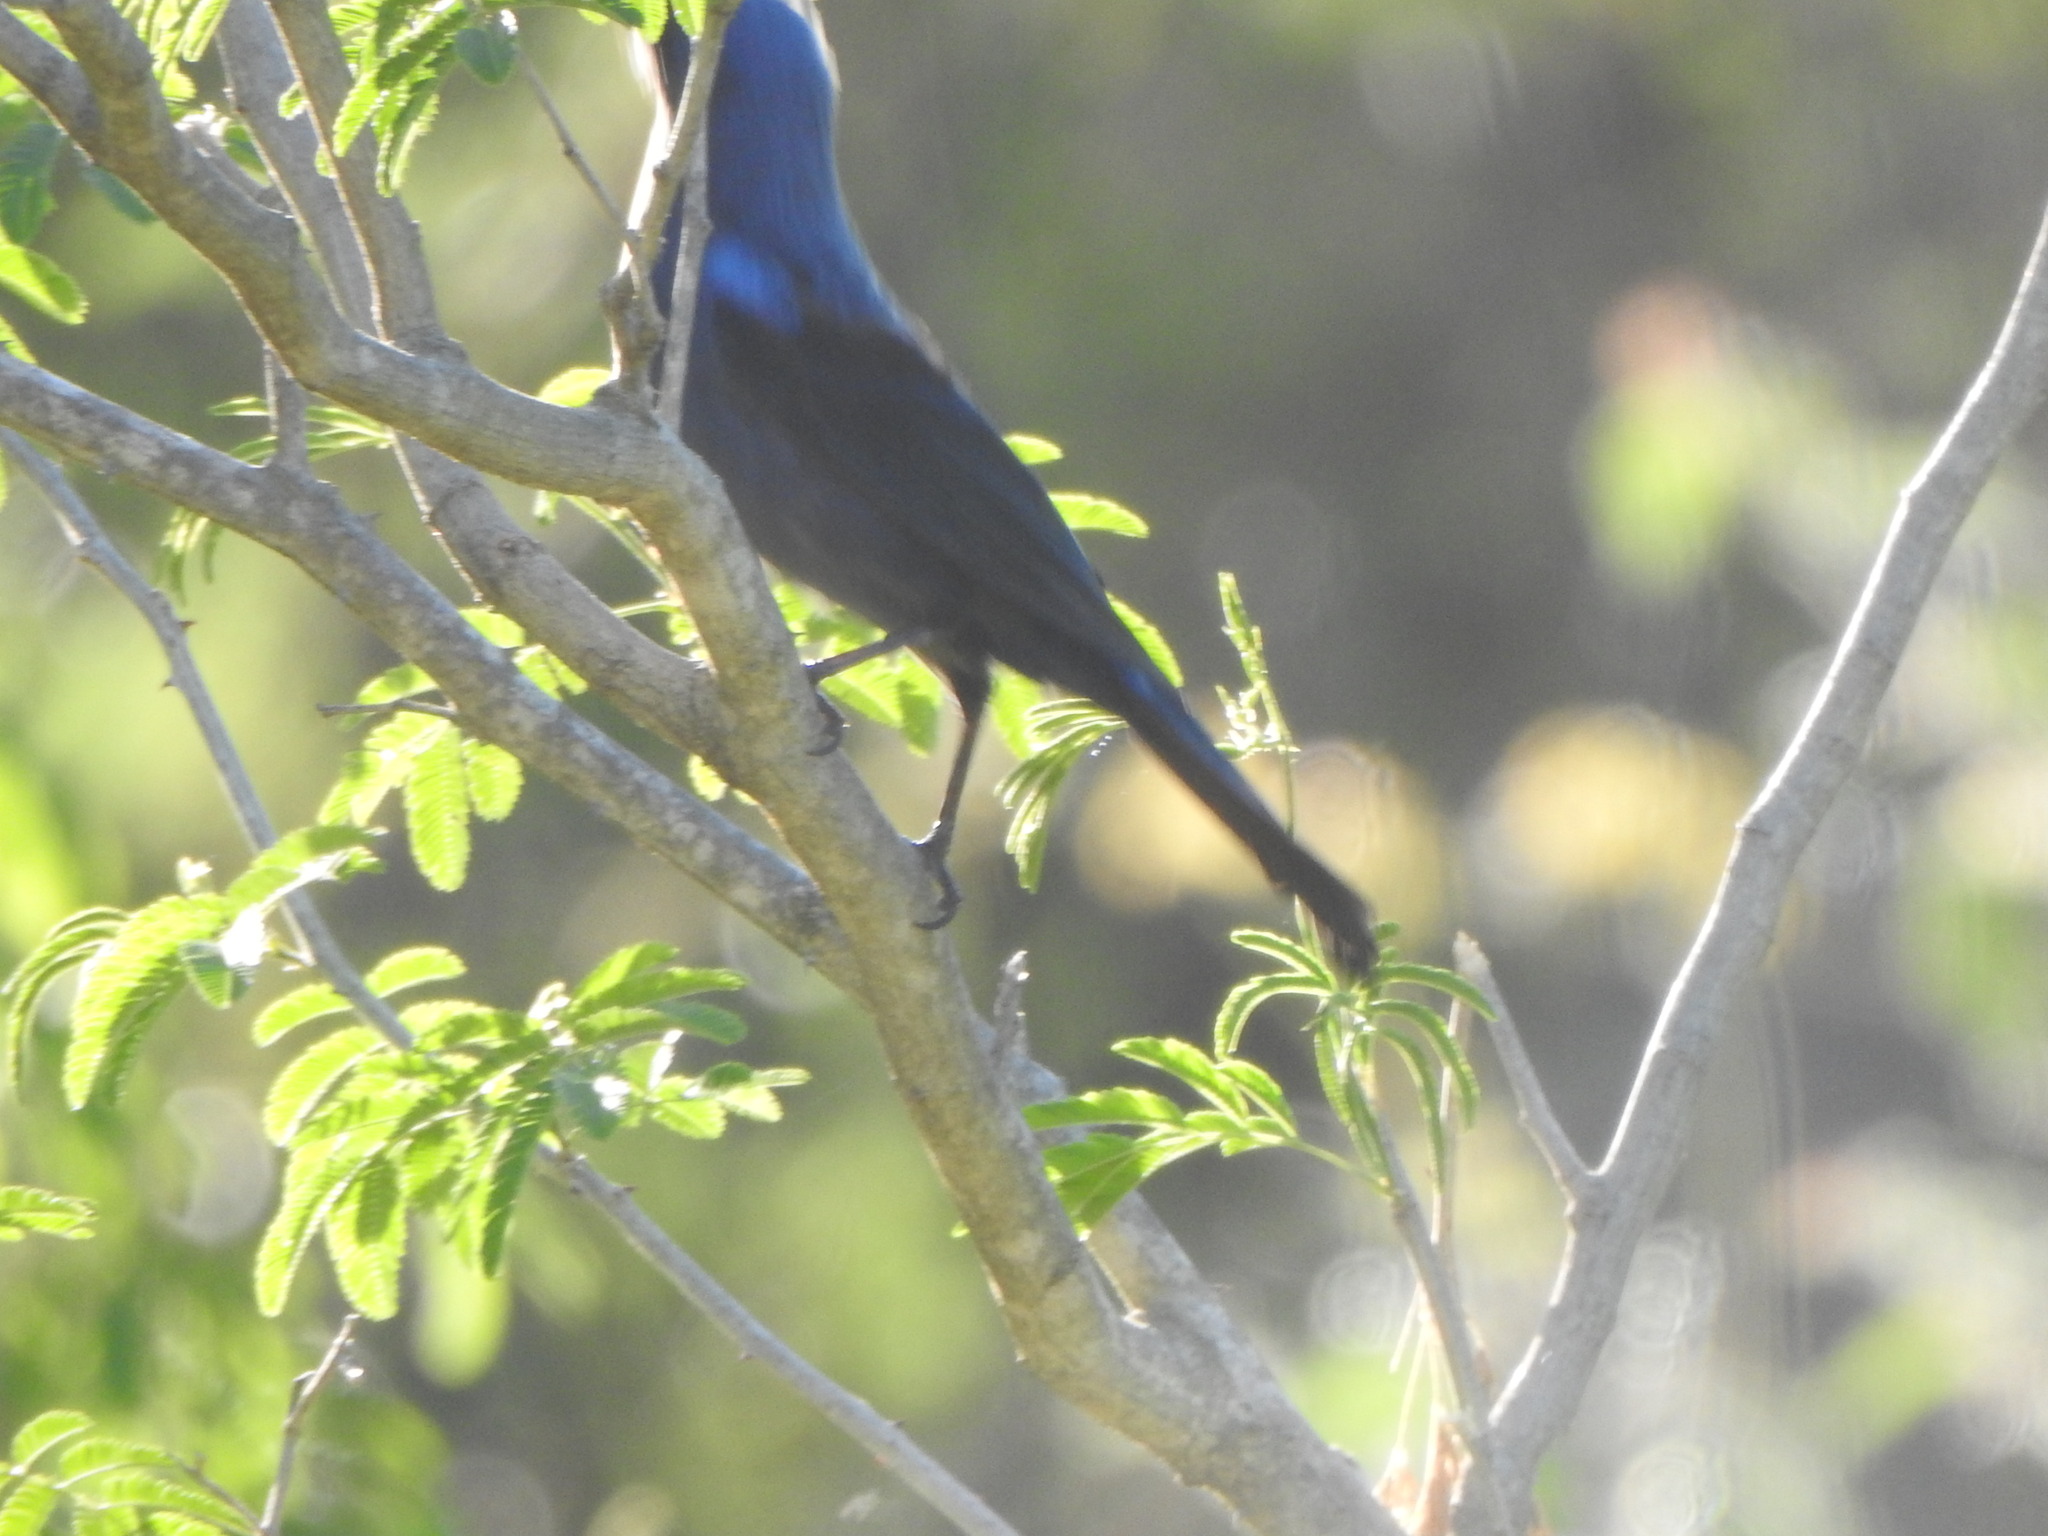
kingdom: Animalia
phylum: Chordata
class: Aves
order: Passeriformes
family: Thraupidae
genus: Stephanophorus
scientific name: Stephanophorus diadematus
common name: Diademed tanager
